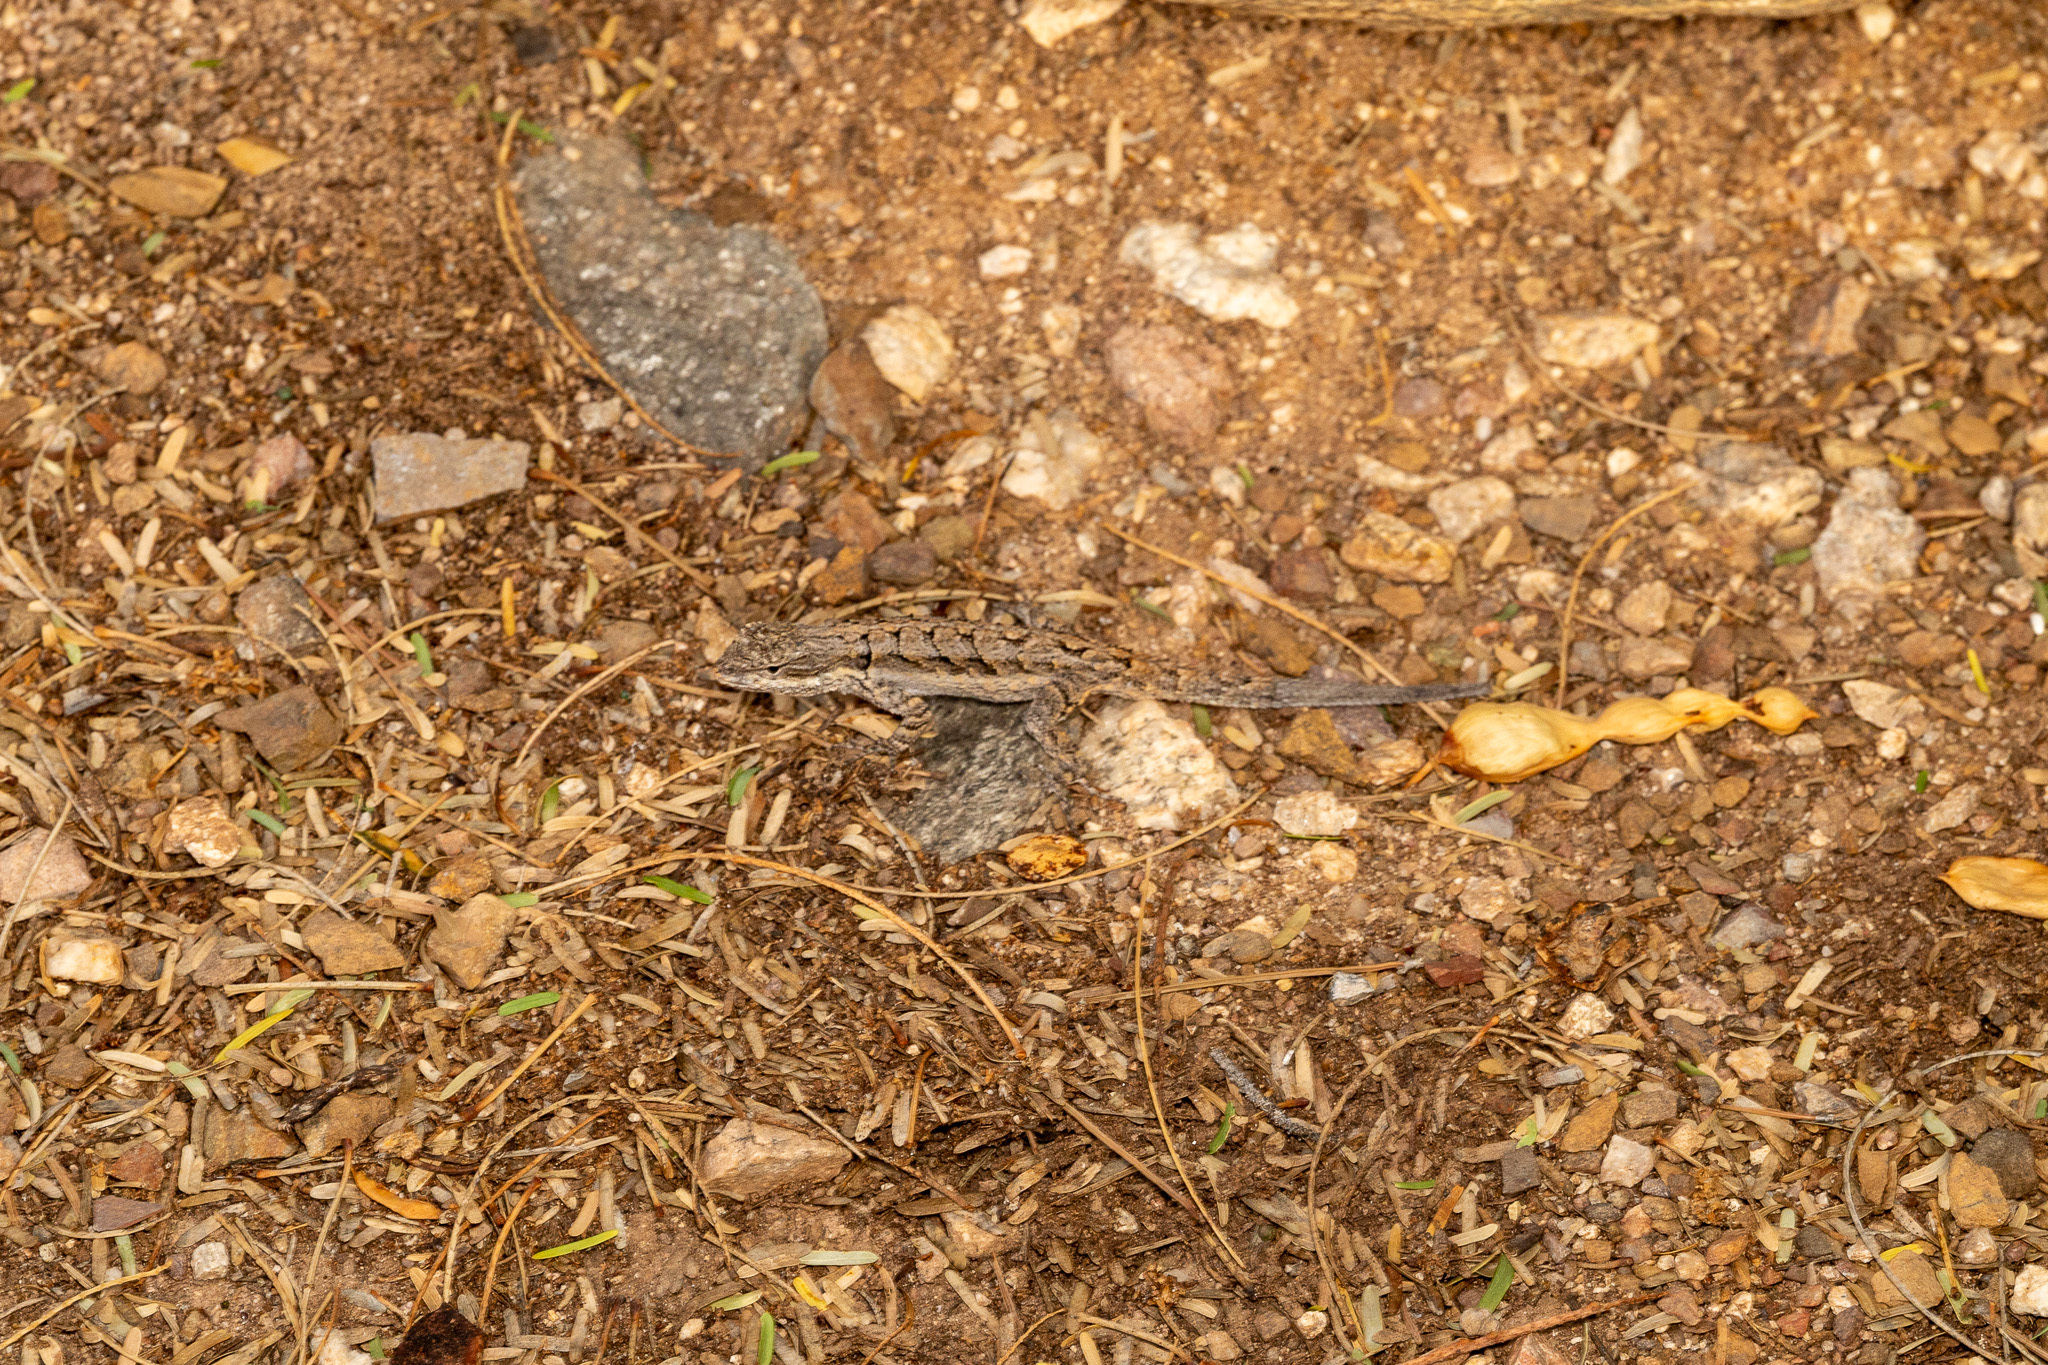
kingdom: Animalia
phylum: Chordata
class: Squamata
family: Phrynosomatidae
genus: Urosaurus
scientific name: Urosaurus ornatus
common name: Ornate tree lizard
